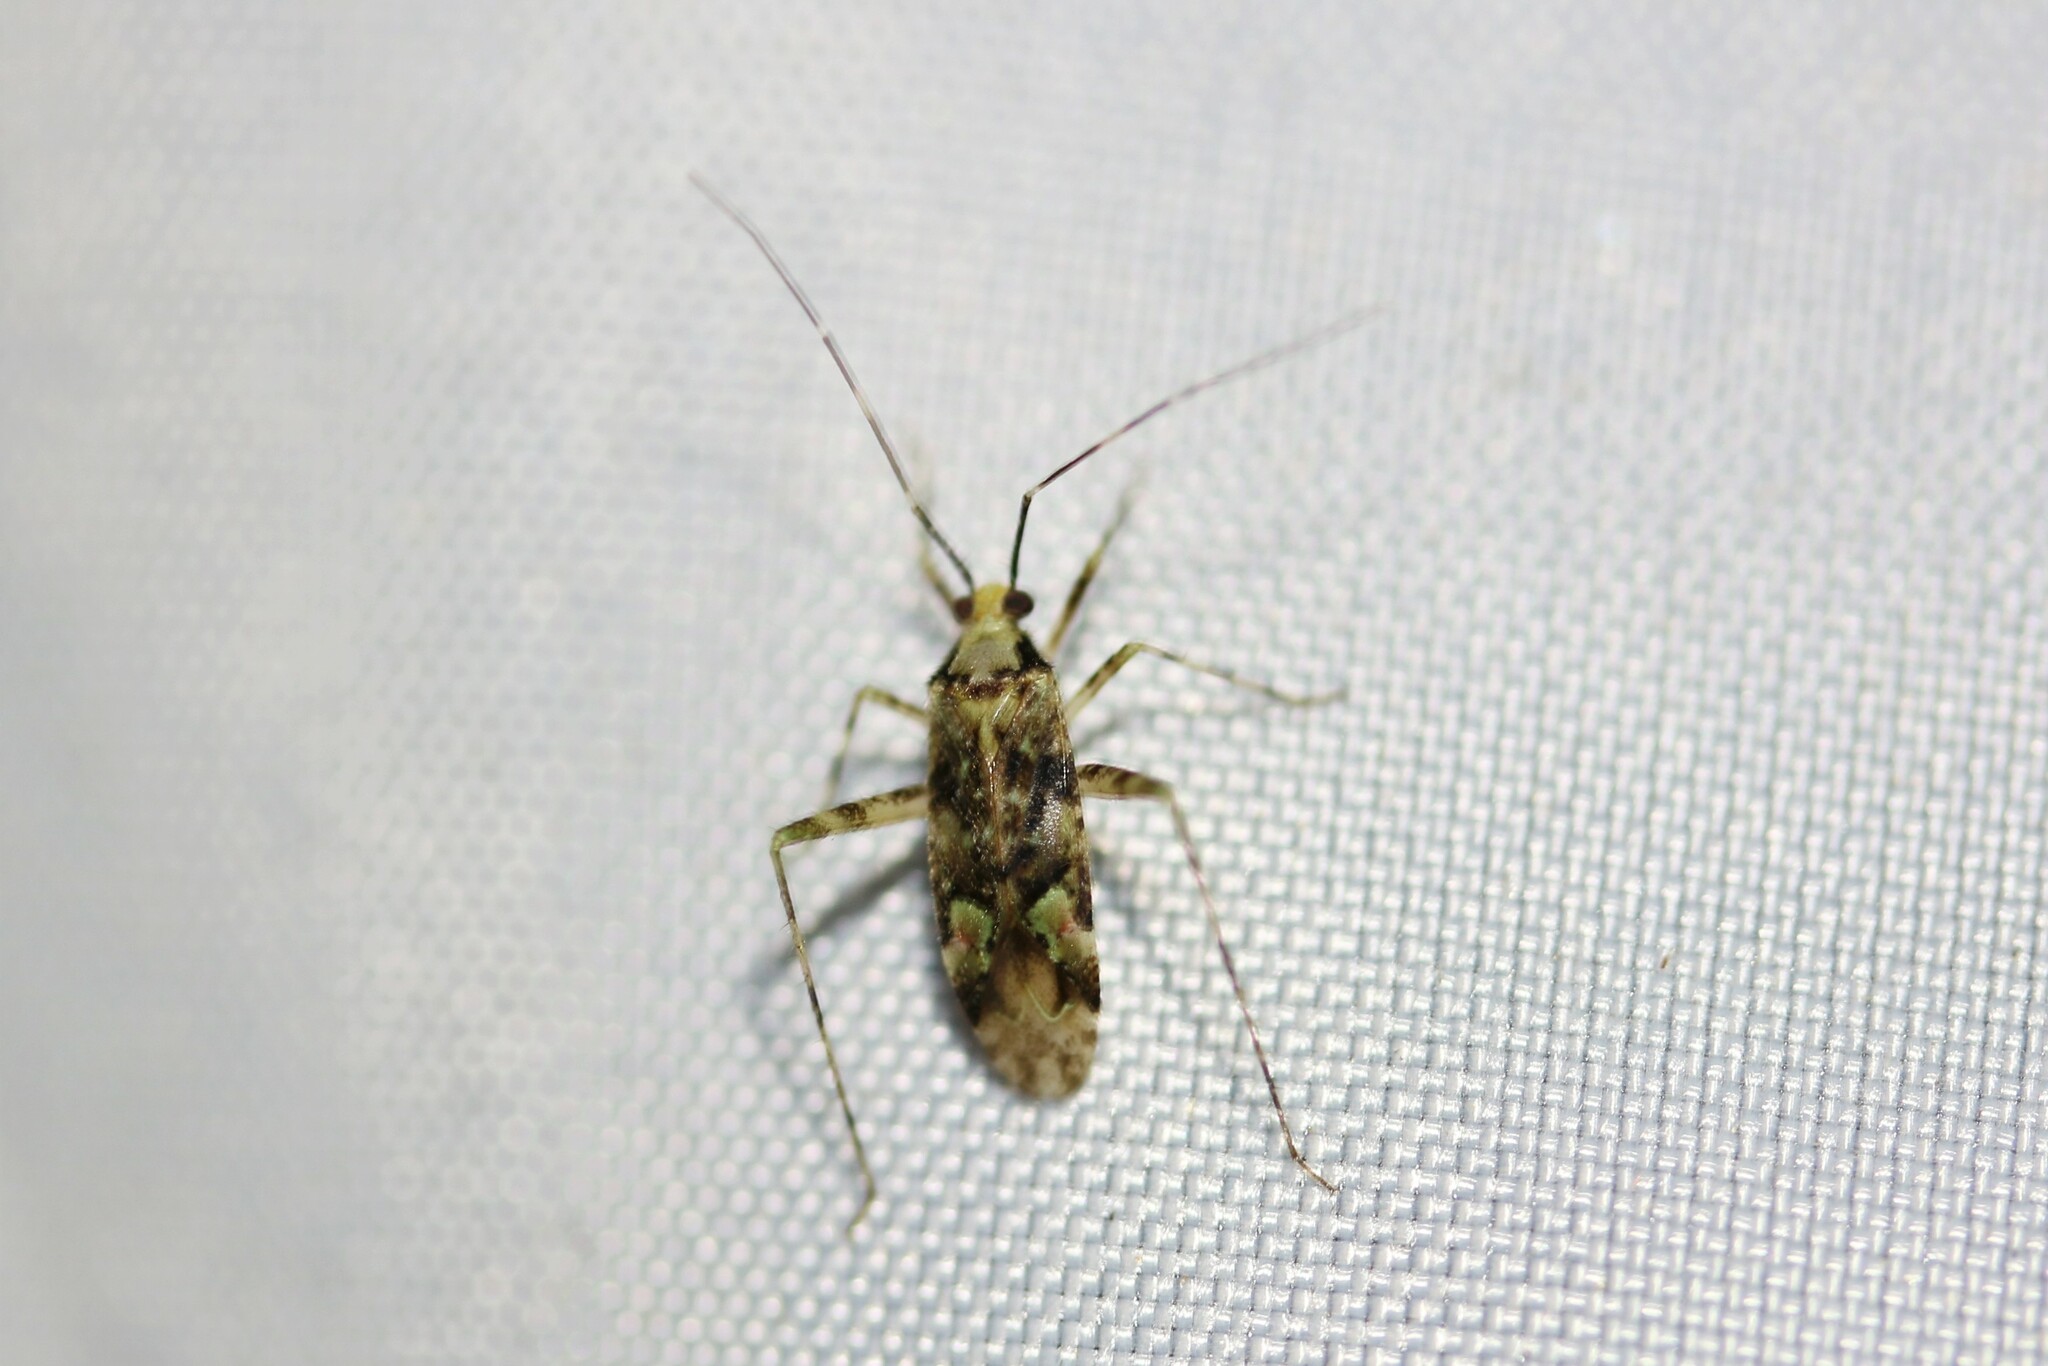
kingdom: Animalia
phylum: Arthropoda
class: Insecta
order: Hemiptera
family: Miridae
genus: Phytocoris
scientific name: Phytocoris tiliae
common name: Plant bug
